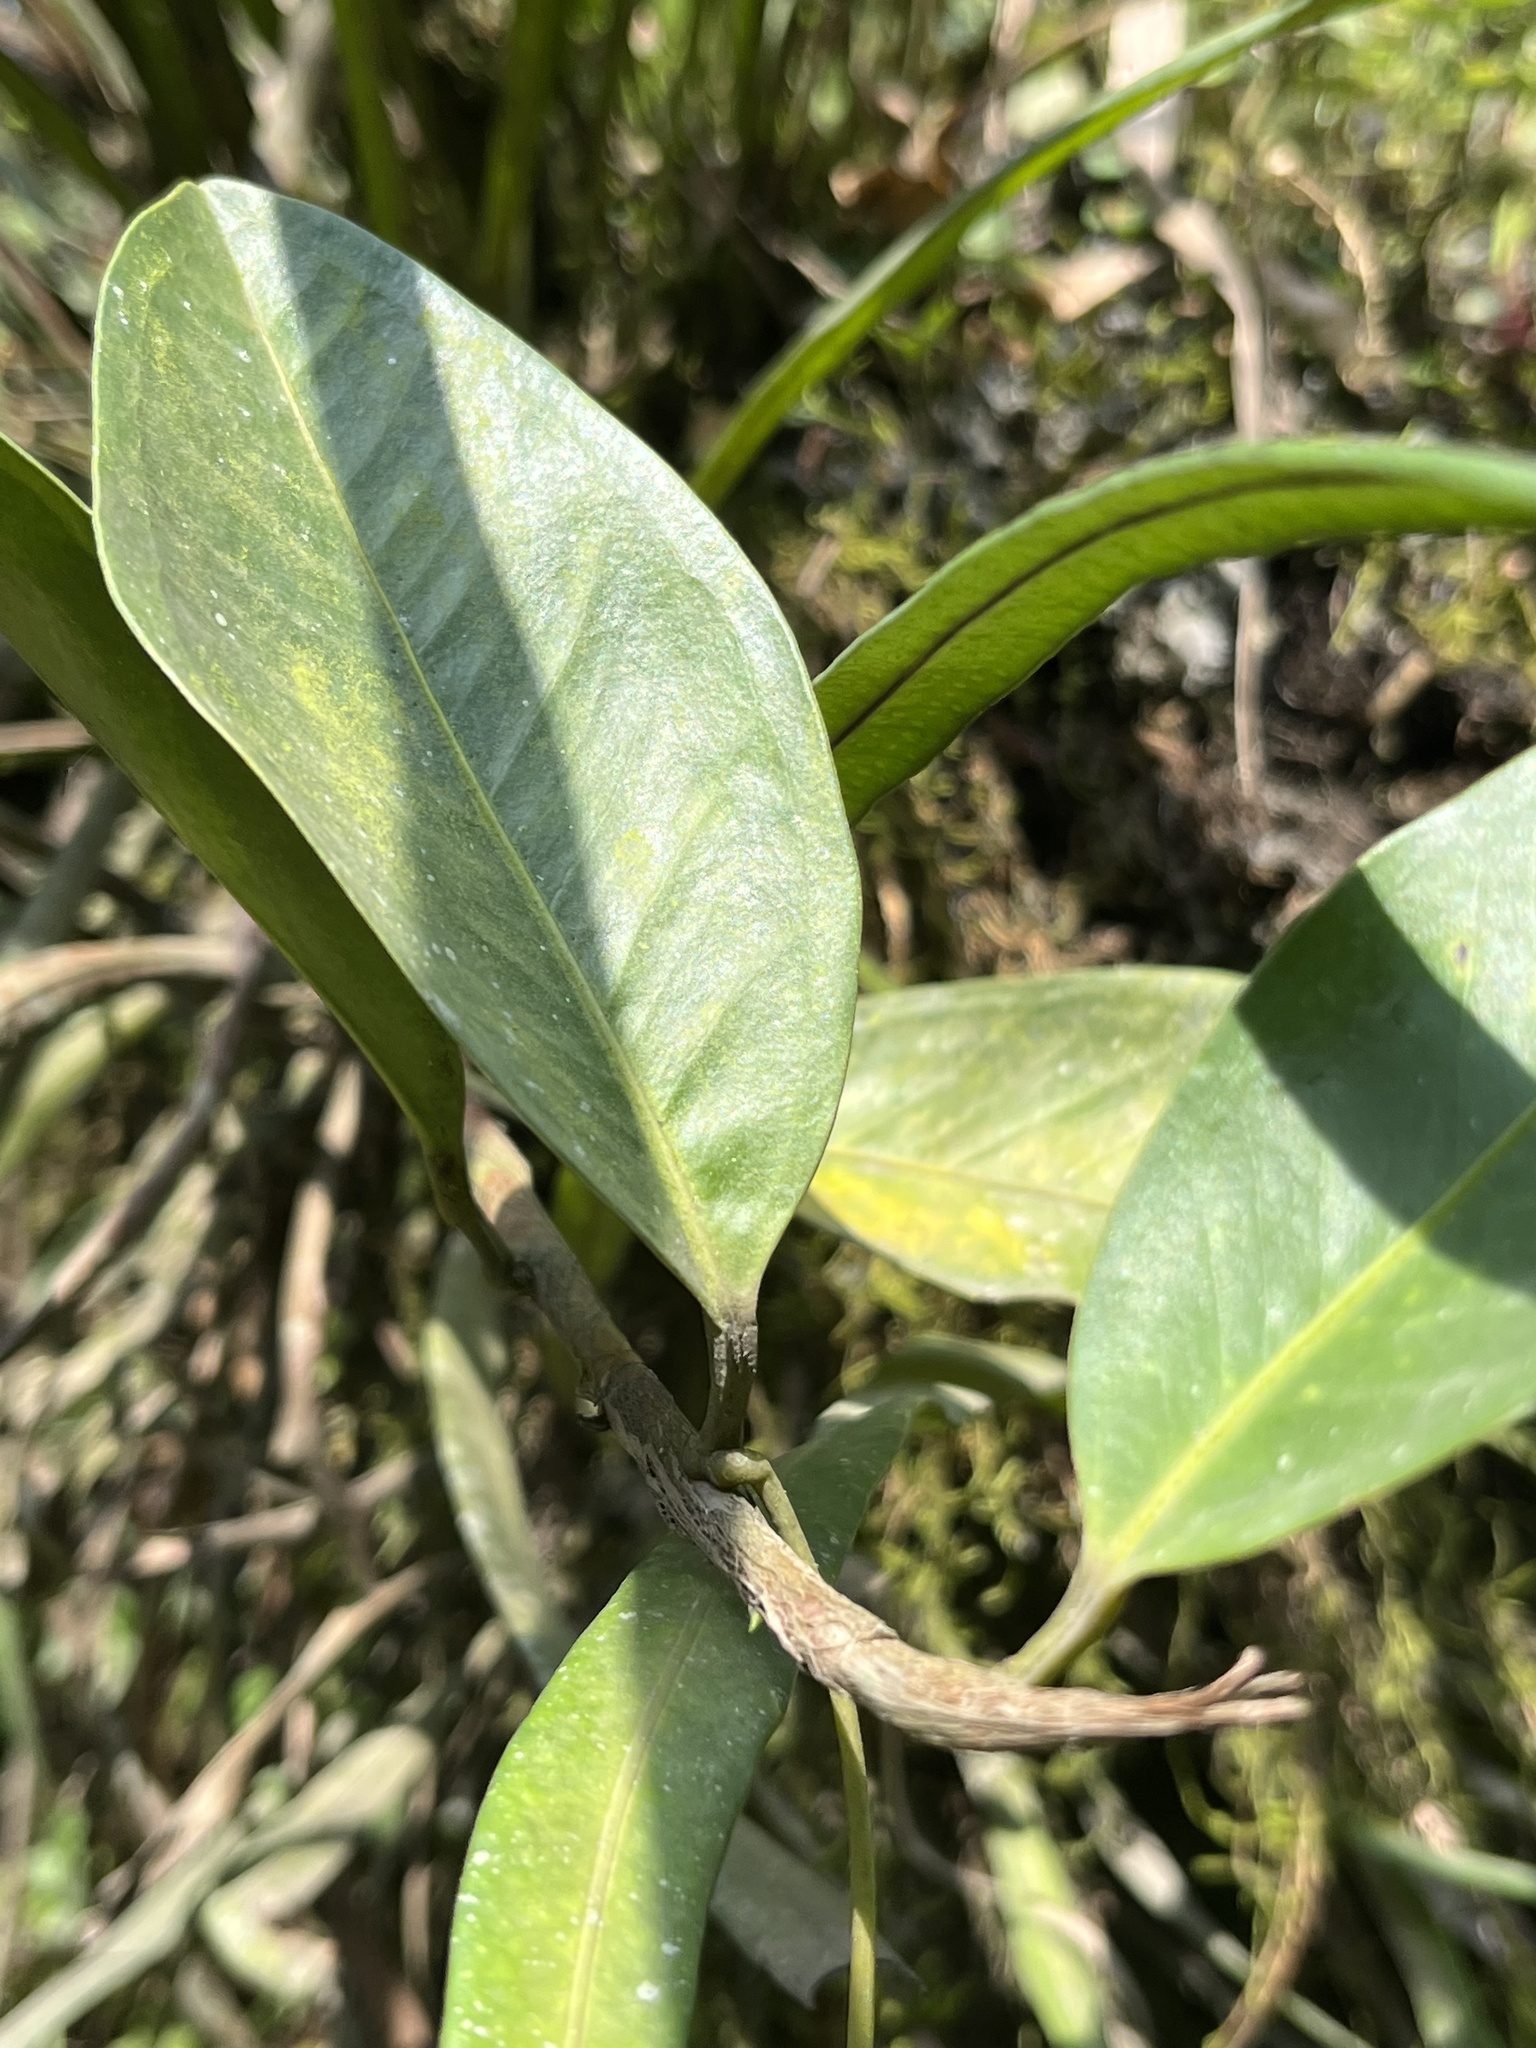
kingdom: Plantae
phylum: Tracheophyta
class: Liliopsida
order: Alismatales
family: Araceae
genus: Anthurium
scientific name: Anthurium scandens
